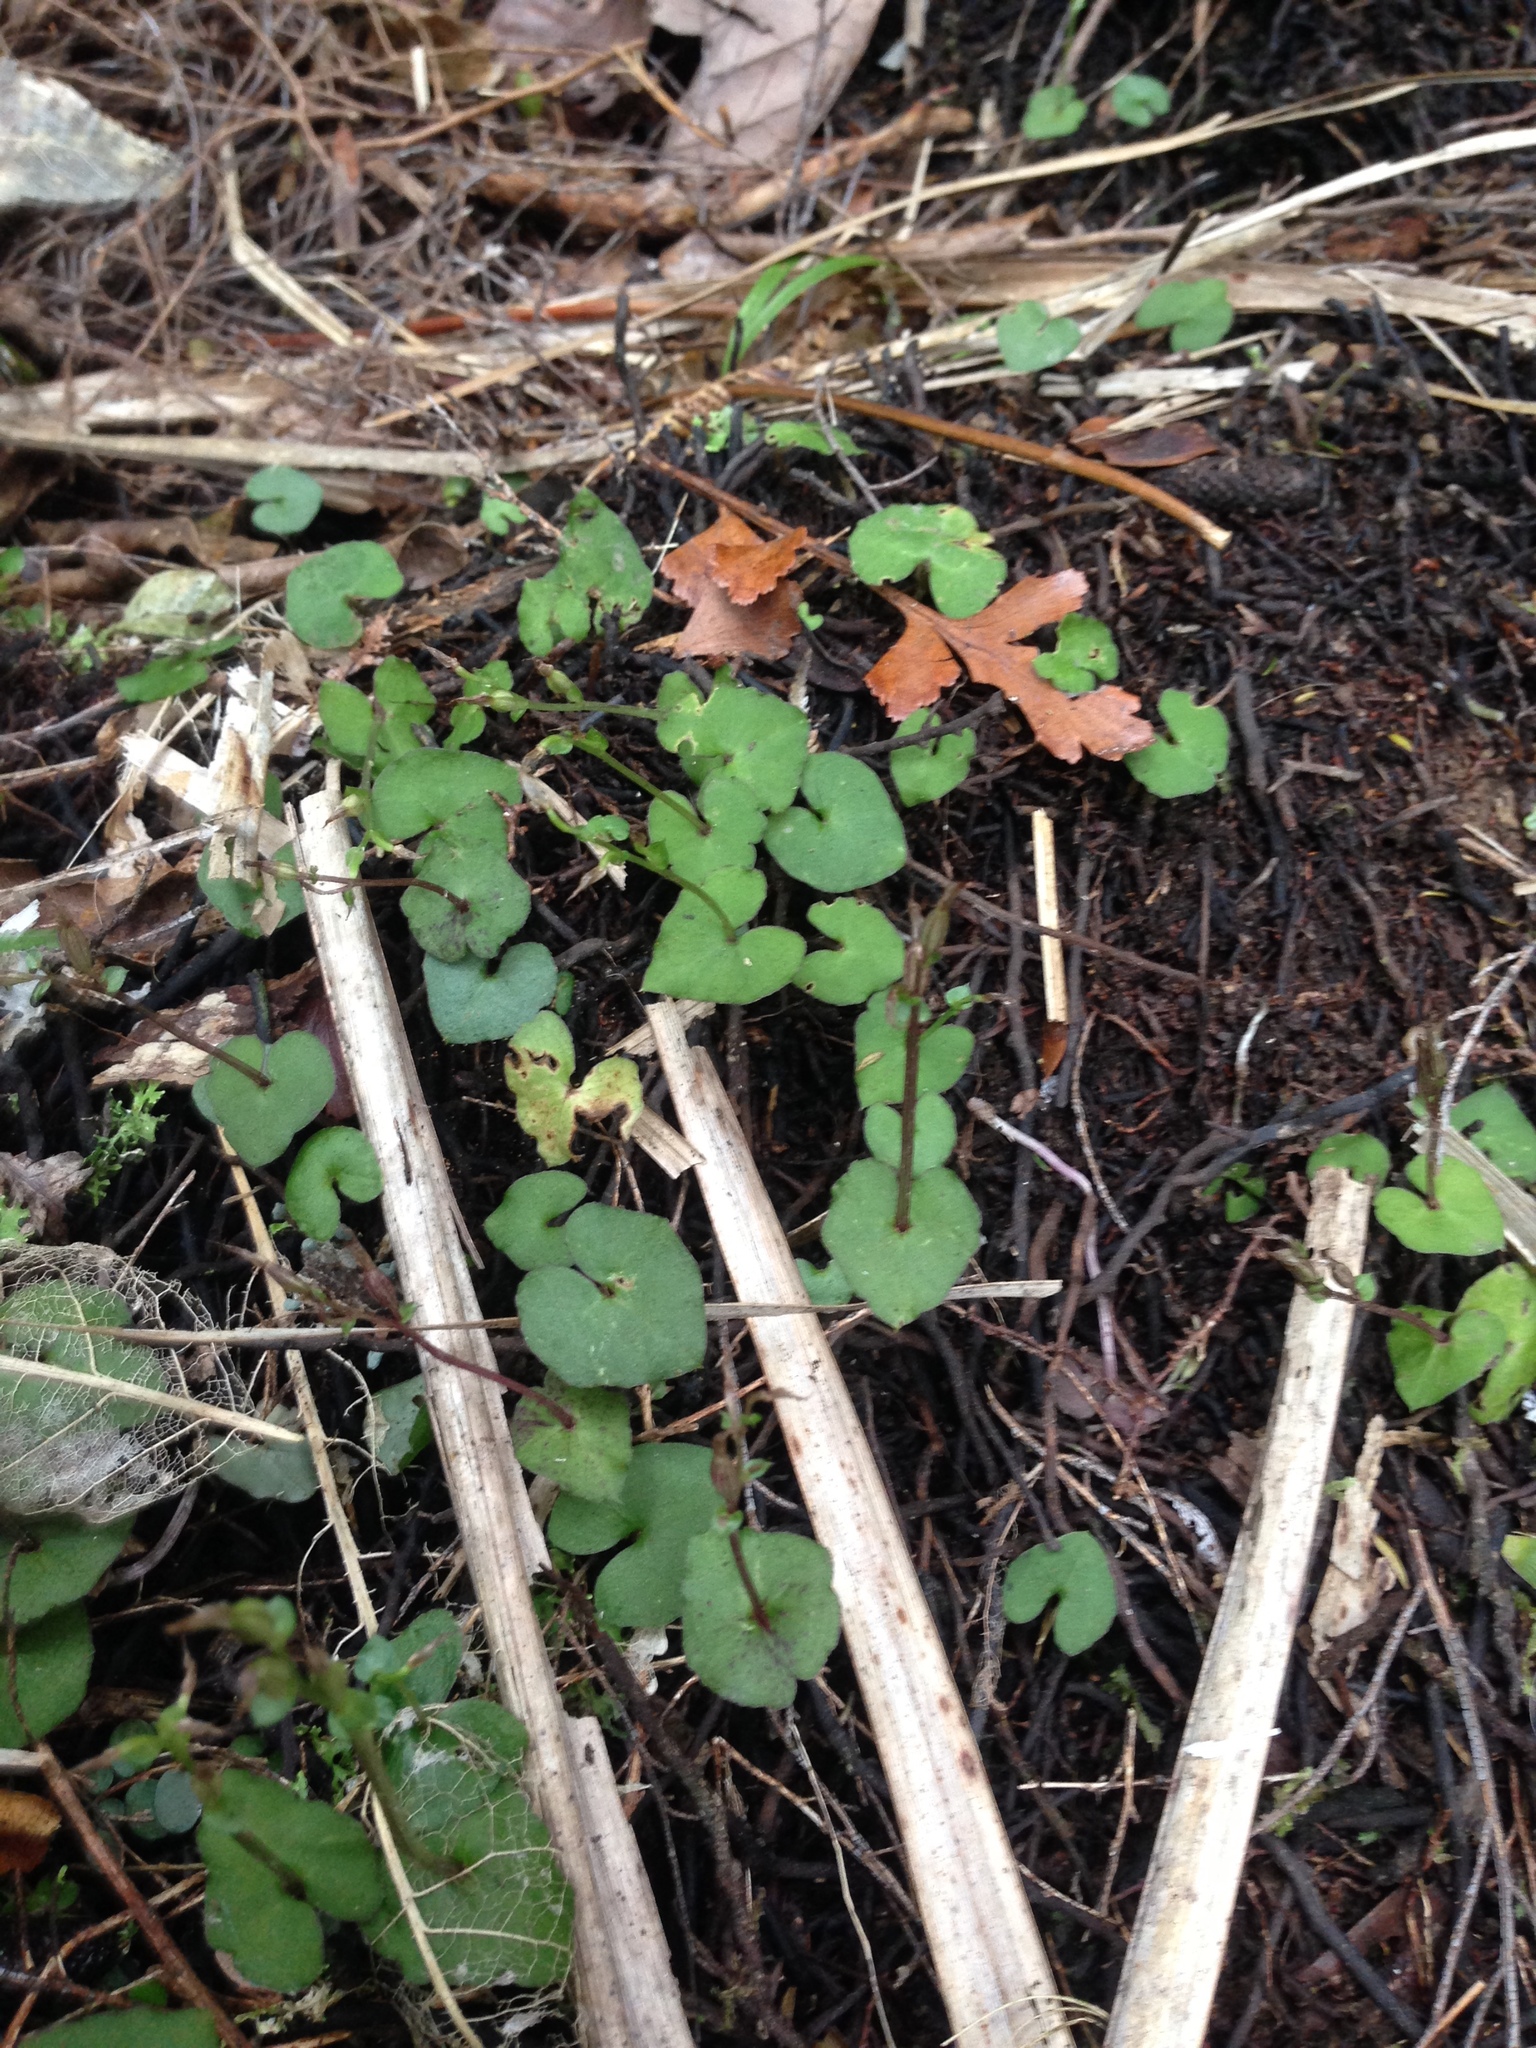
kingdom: Plantae
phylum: Tracheophyta
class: Liliopsida
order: Asparagales
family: Orchidaceae
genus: Acianthus
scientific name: Acianthus sinclairii
